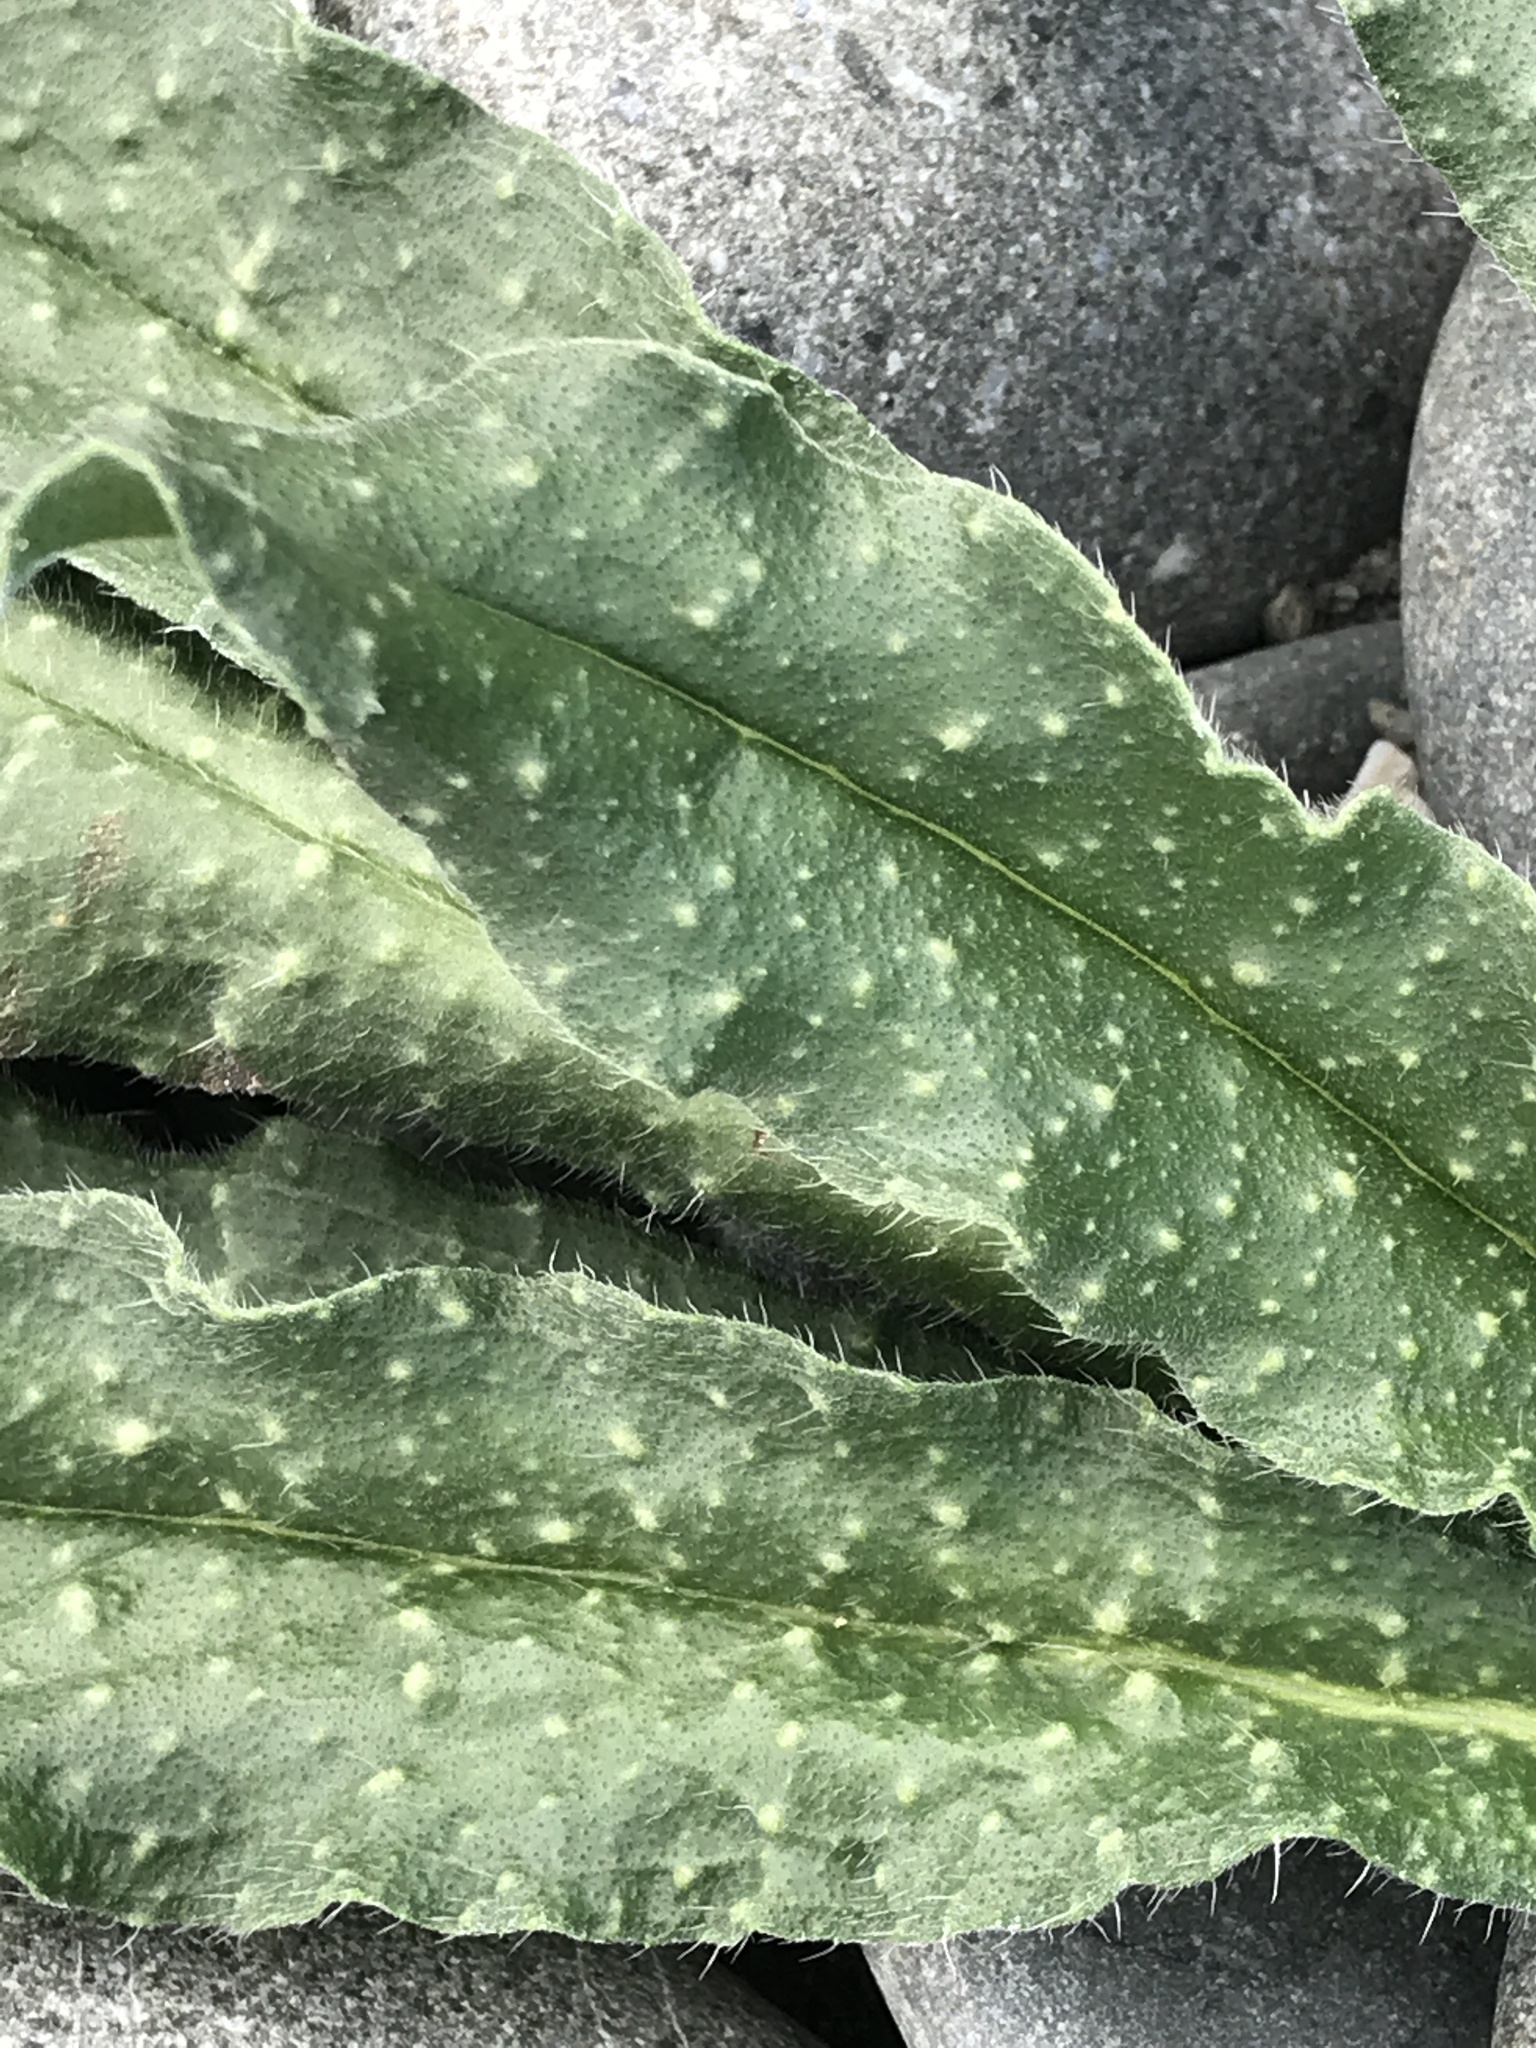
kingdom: Plantae
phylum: Tracheophyta
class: Magnoliopsida
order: Boraginales
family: Boraginaceae
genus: Echium
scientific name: Echium vulgare
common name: Common viper's bugloss
